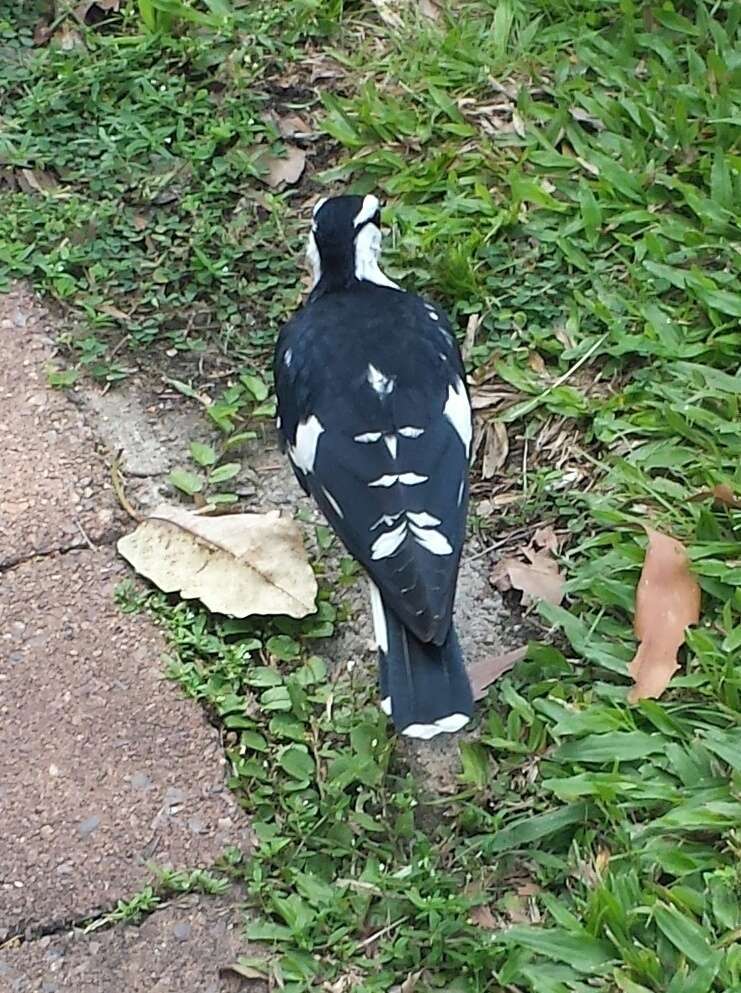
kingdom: Animalia
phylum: Chordata
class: Aves
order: Passeriformes
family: Monarchidae
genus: Grallina
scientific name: Grallina cyanoleuca
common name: Magpie-lark
